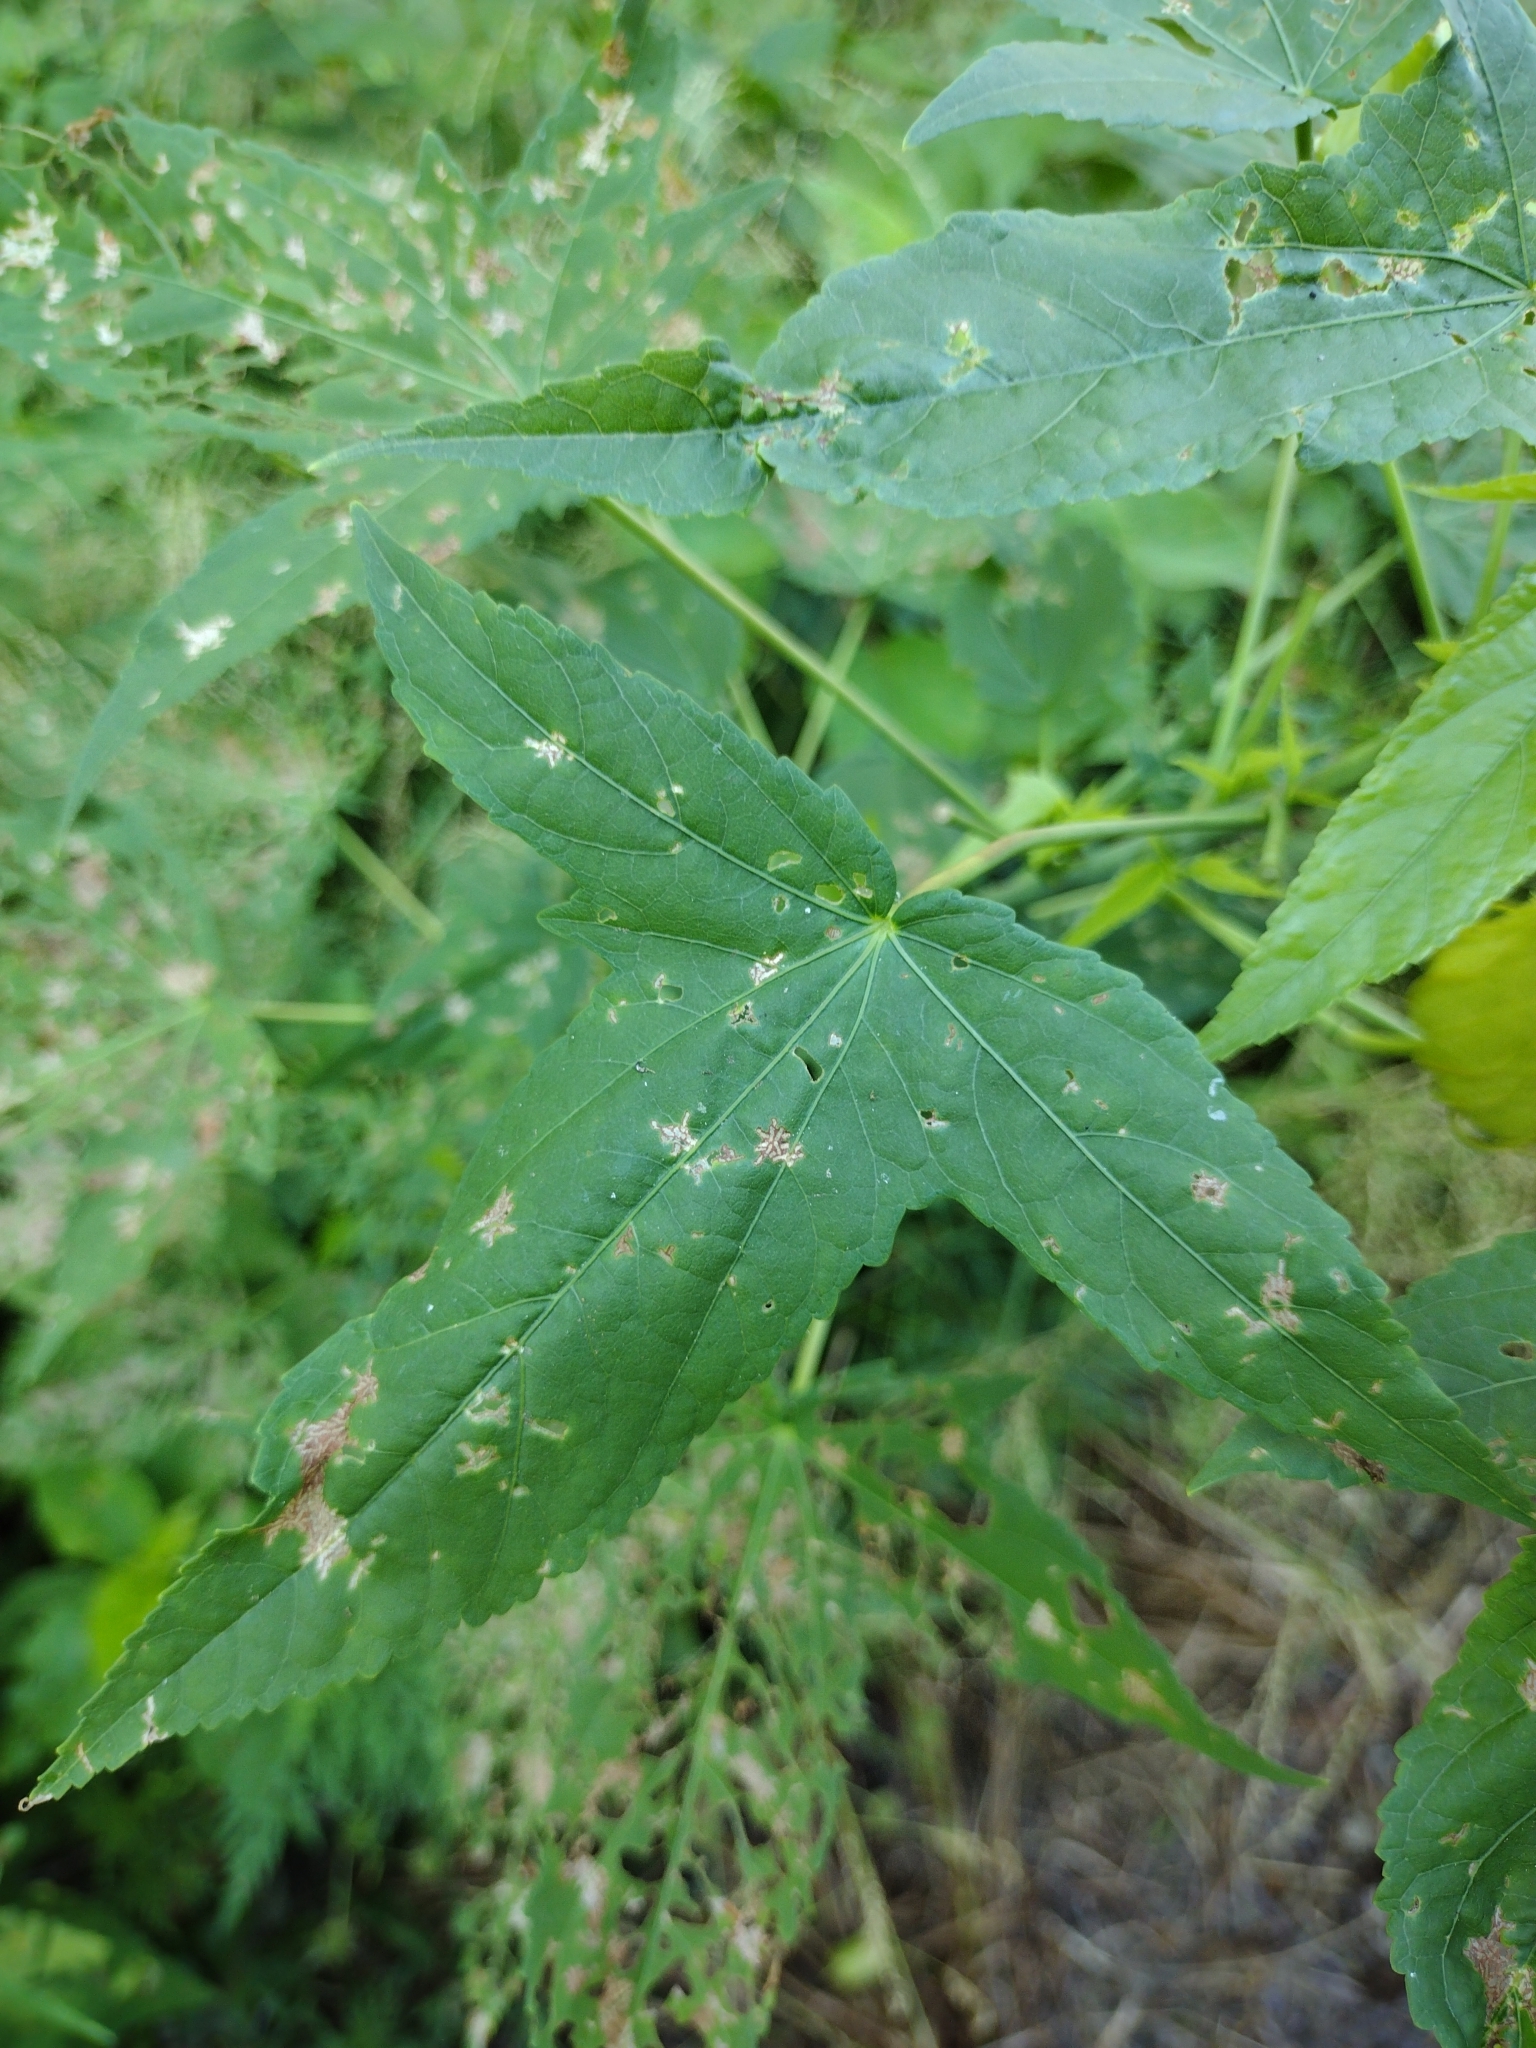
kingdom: Plantae
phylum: Tracheophyta
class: Magnoliopsida
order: Malvales
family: Malvaceae
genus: Hibiscus
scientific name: Hibiscus laevis
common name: Scarlet rose-mallow
